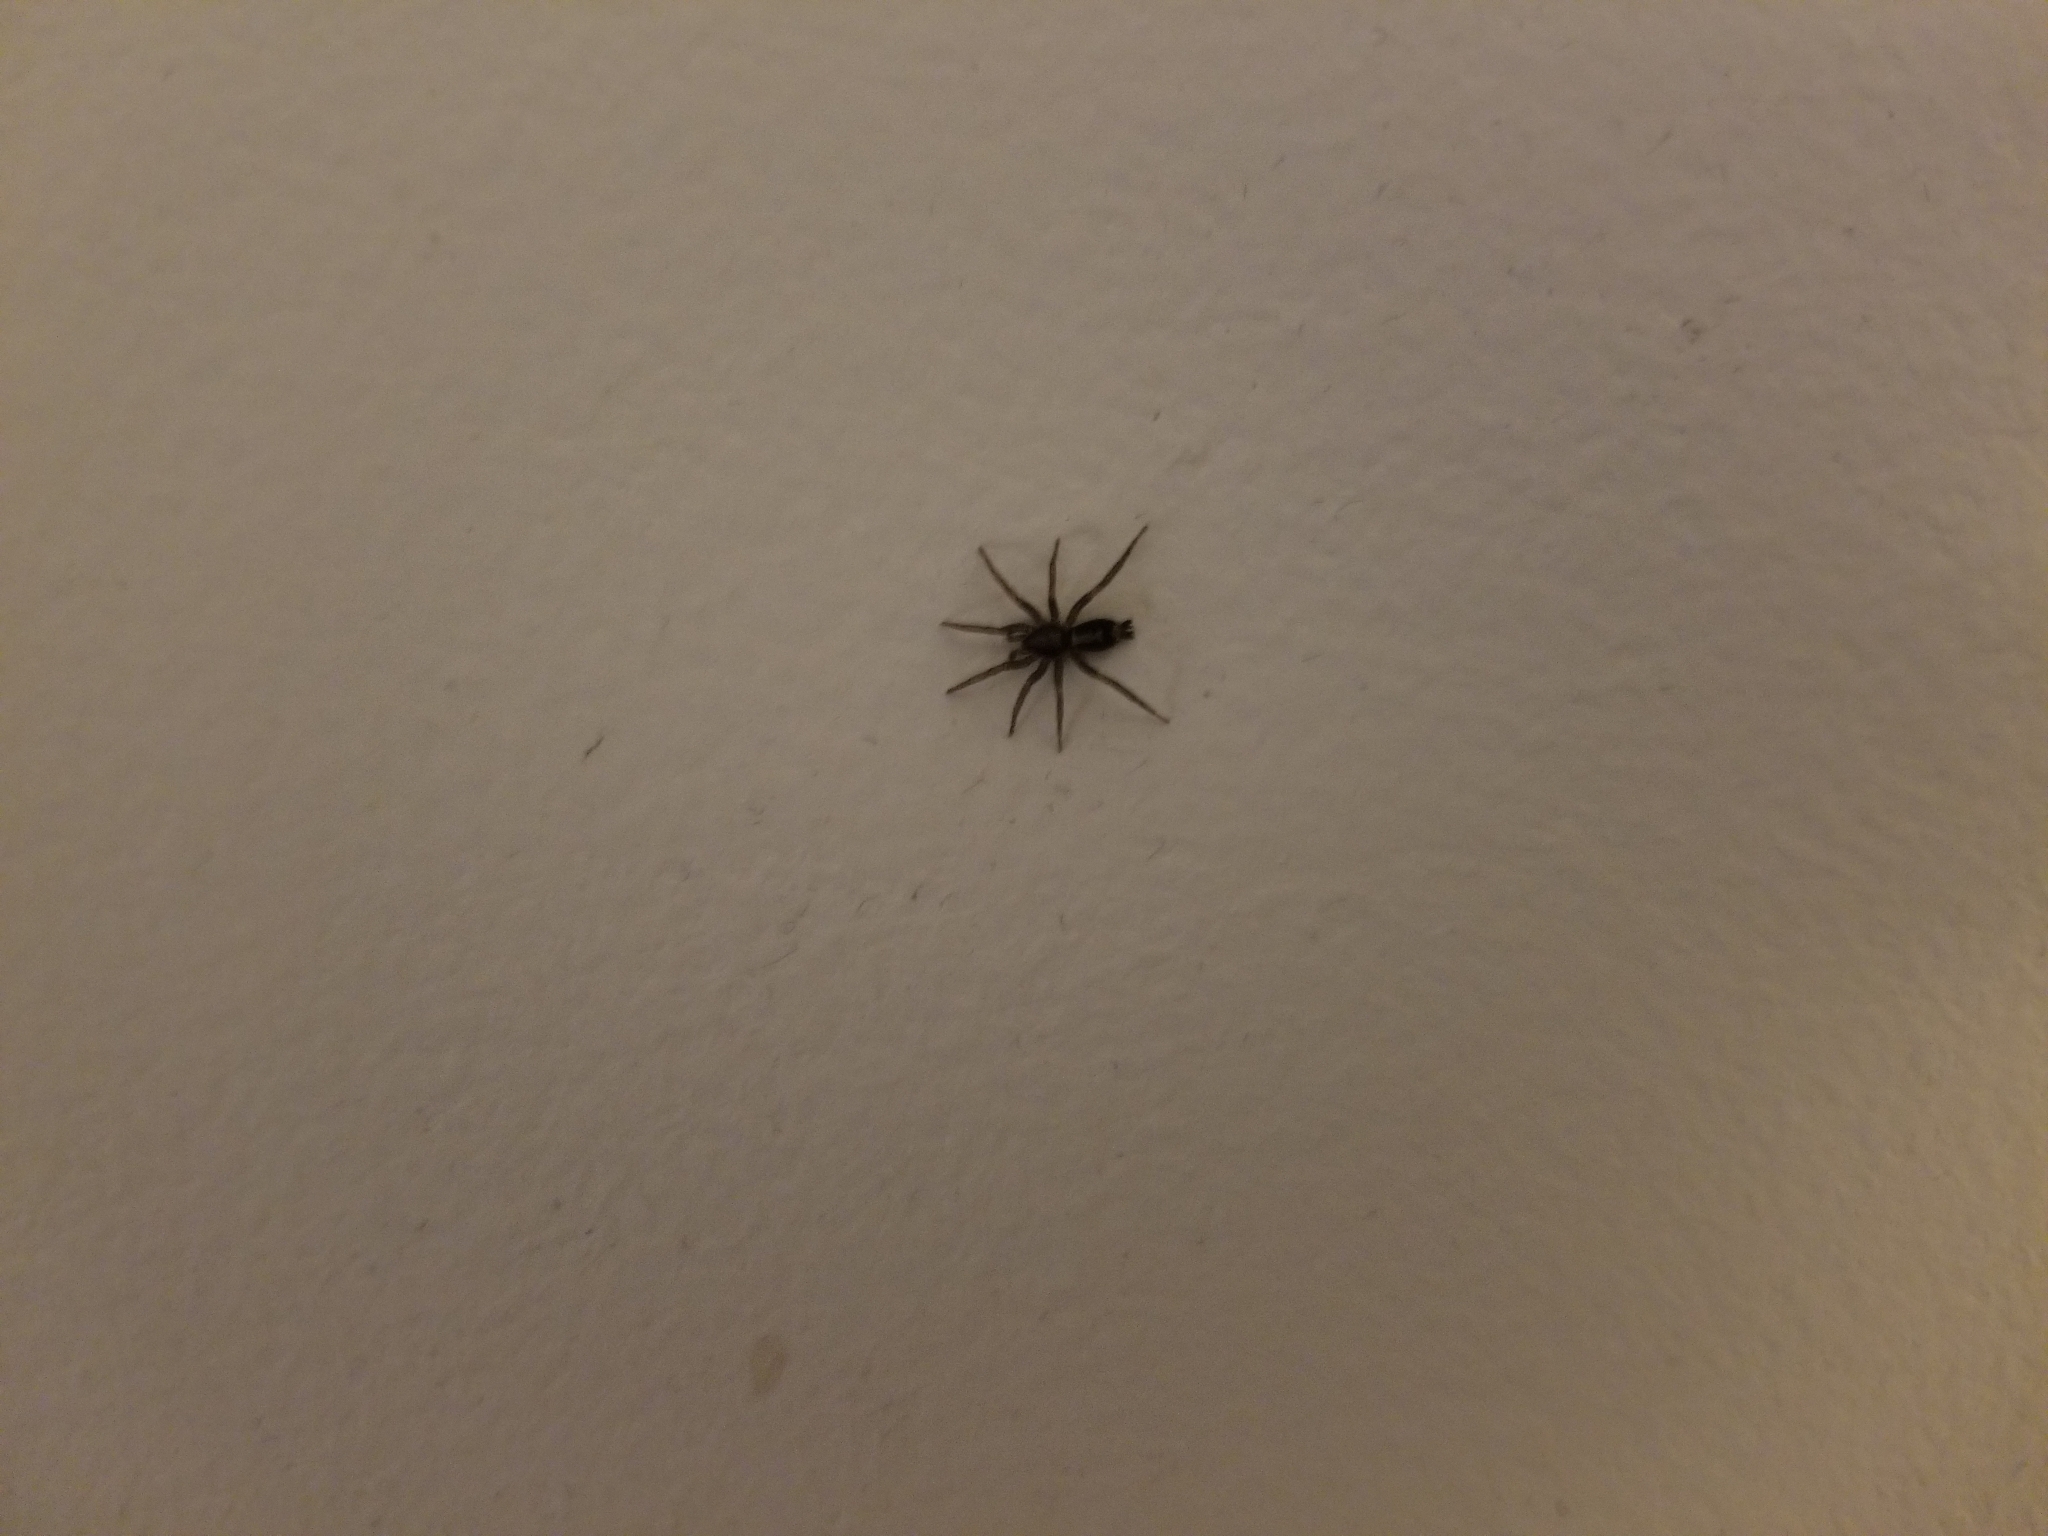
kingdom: Animalia
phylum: Arthropoda
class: Arachnida
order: Araneae
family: Gnaphosidae
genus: Herpyllus
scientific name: Herpyllus ecclesiasticus
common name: Eastern parson spider
